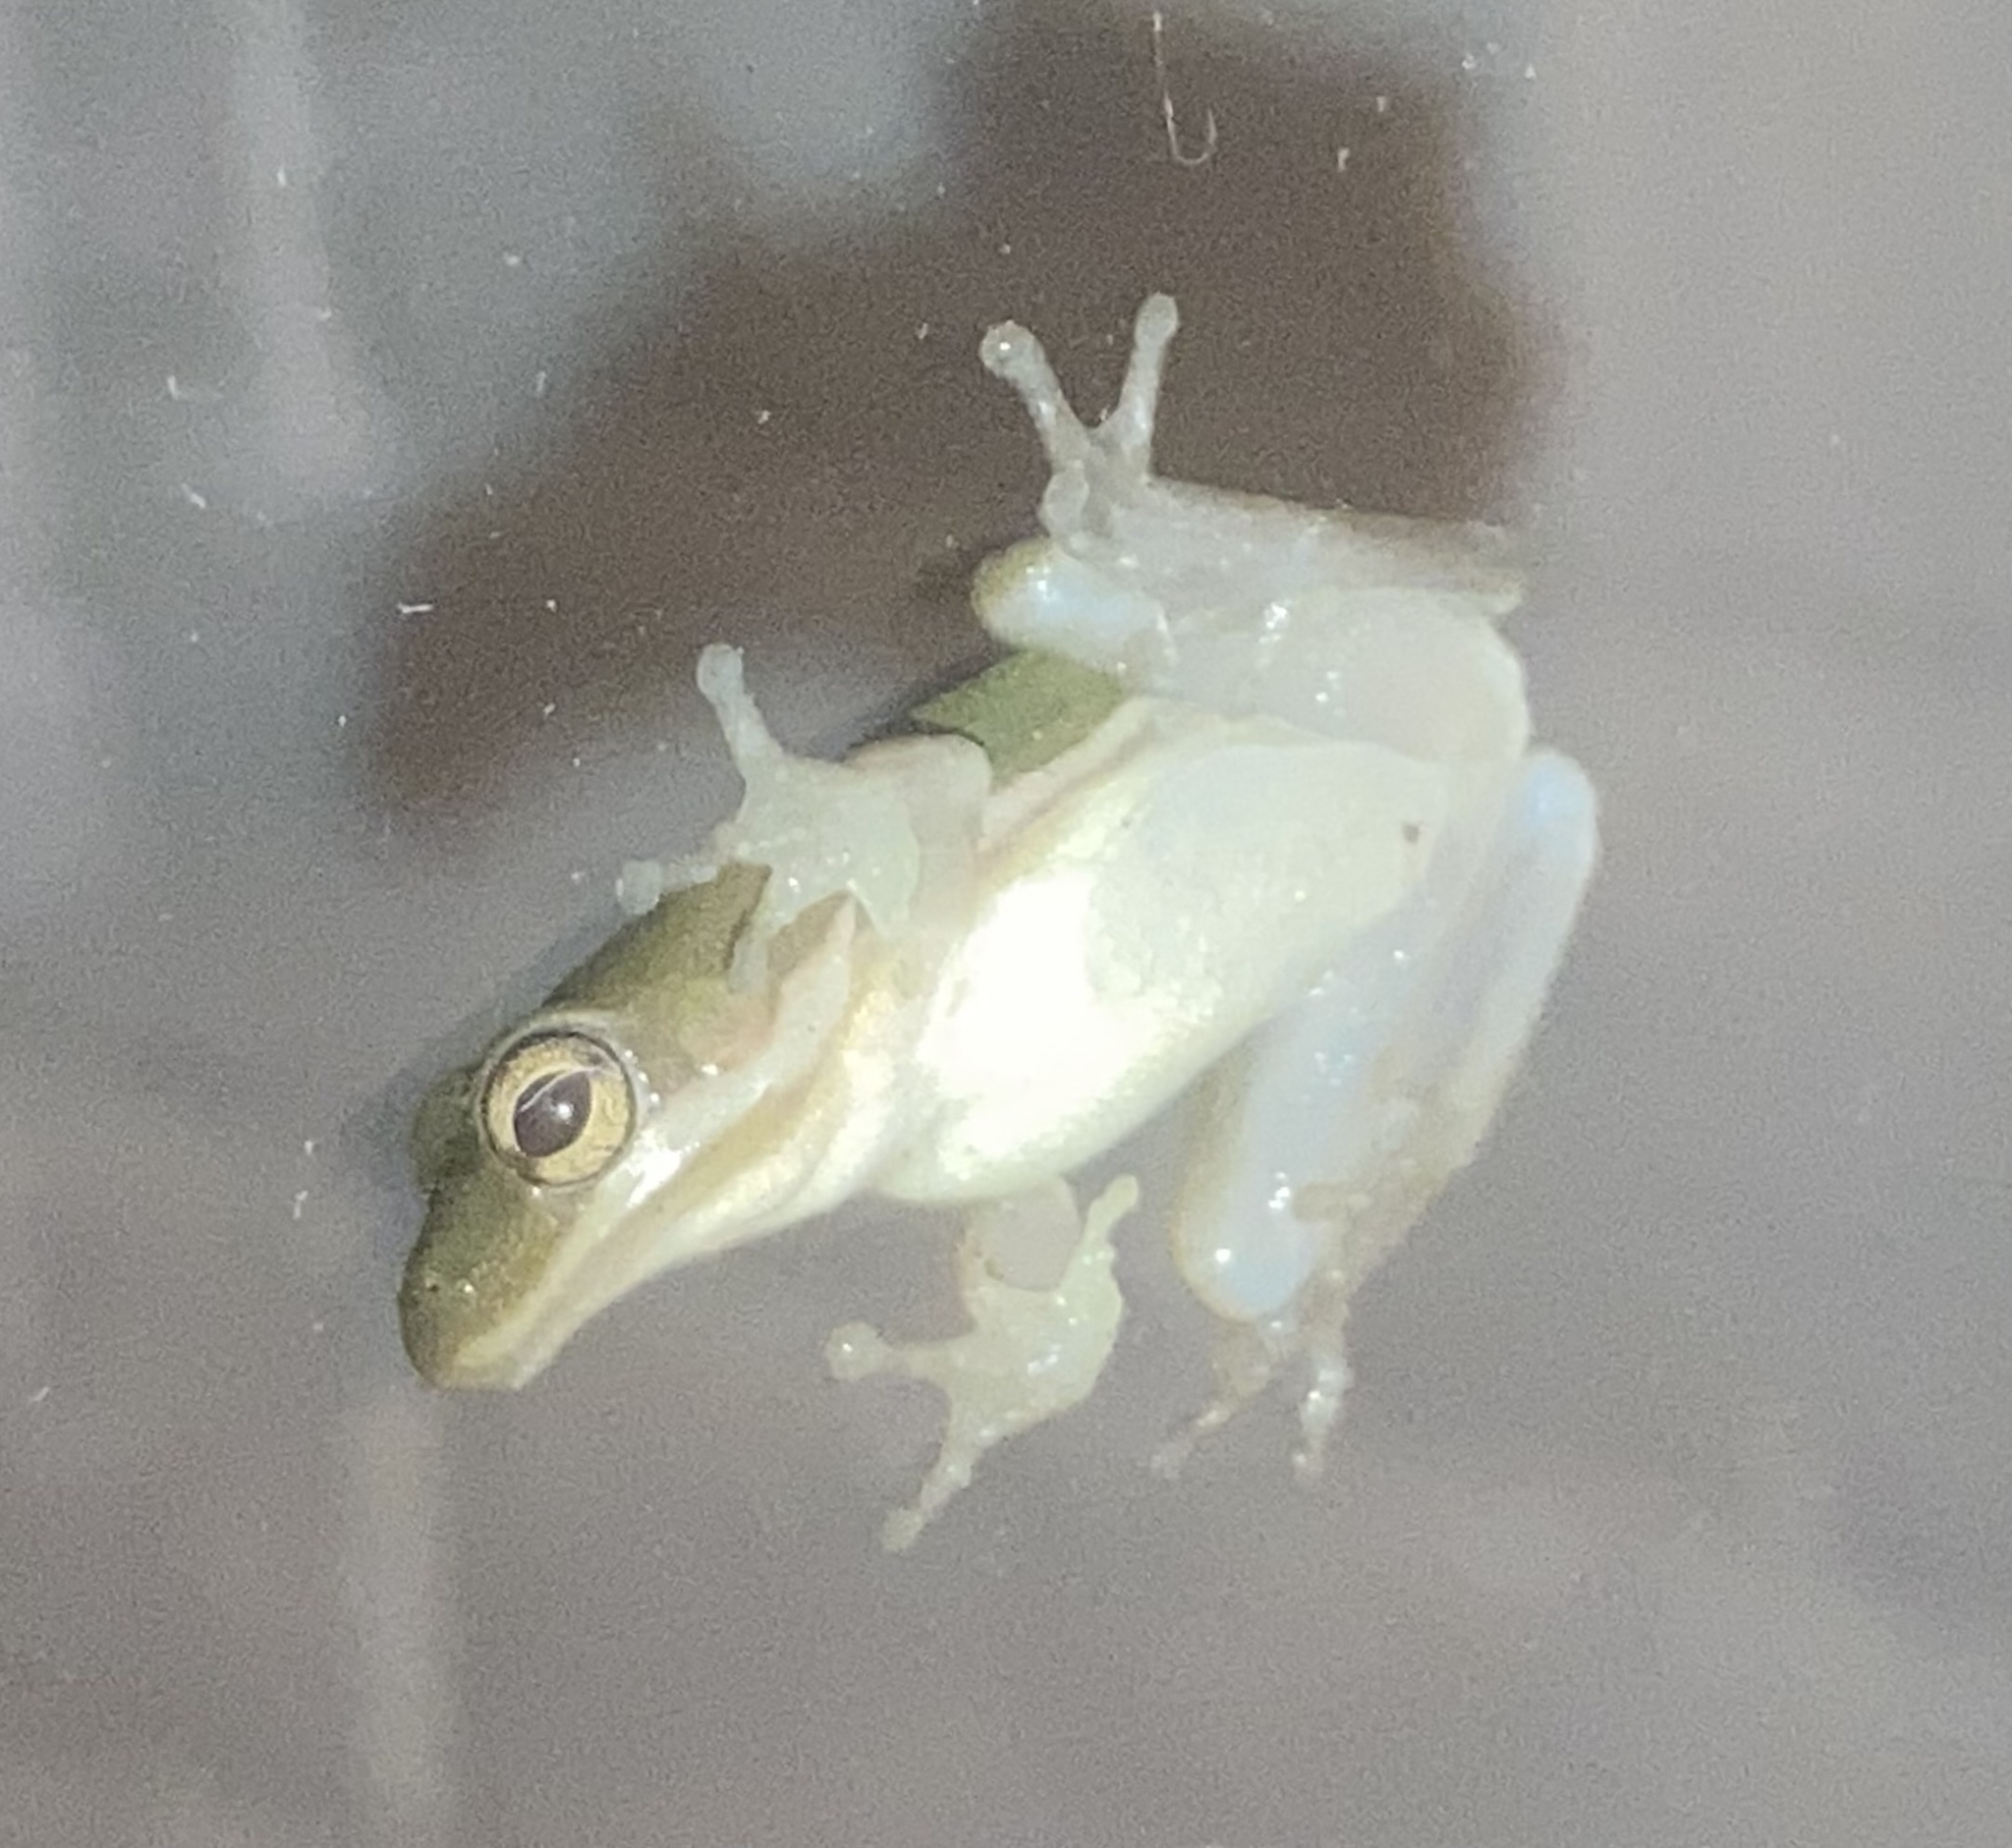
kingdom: Animalia
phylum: Chordata
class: Amphibia
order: Anura
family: Hylidae
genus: Dryophytes
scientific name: Dryophytes cinereus
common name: Green treefrog
